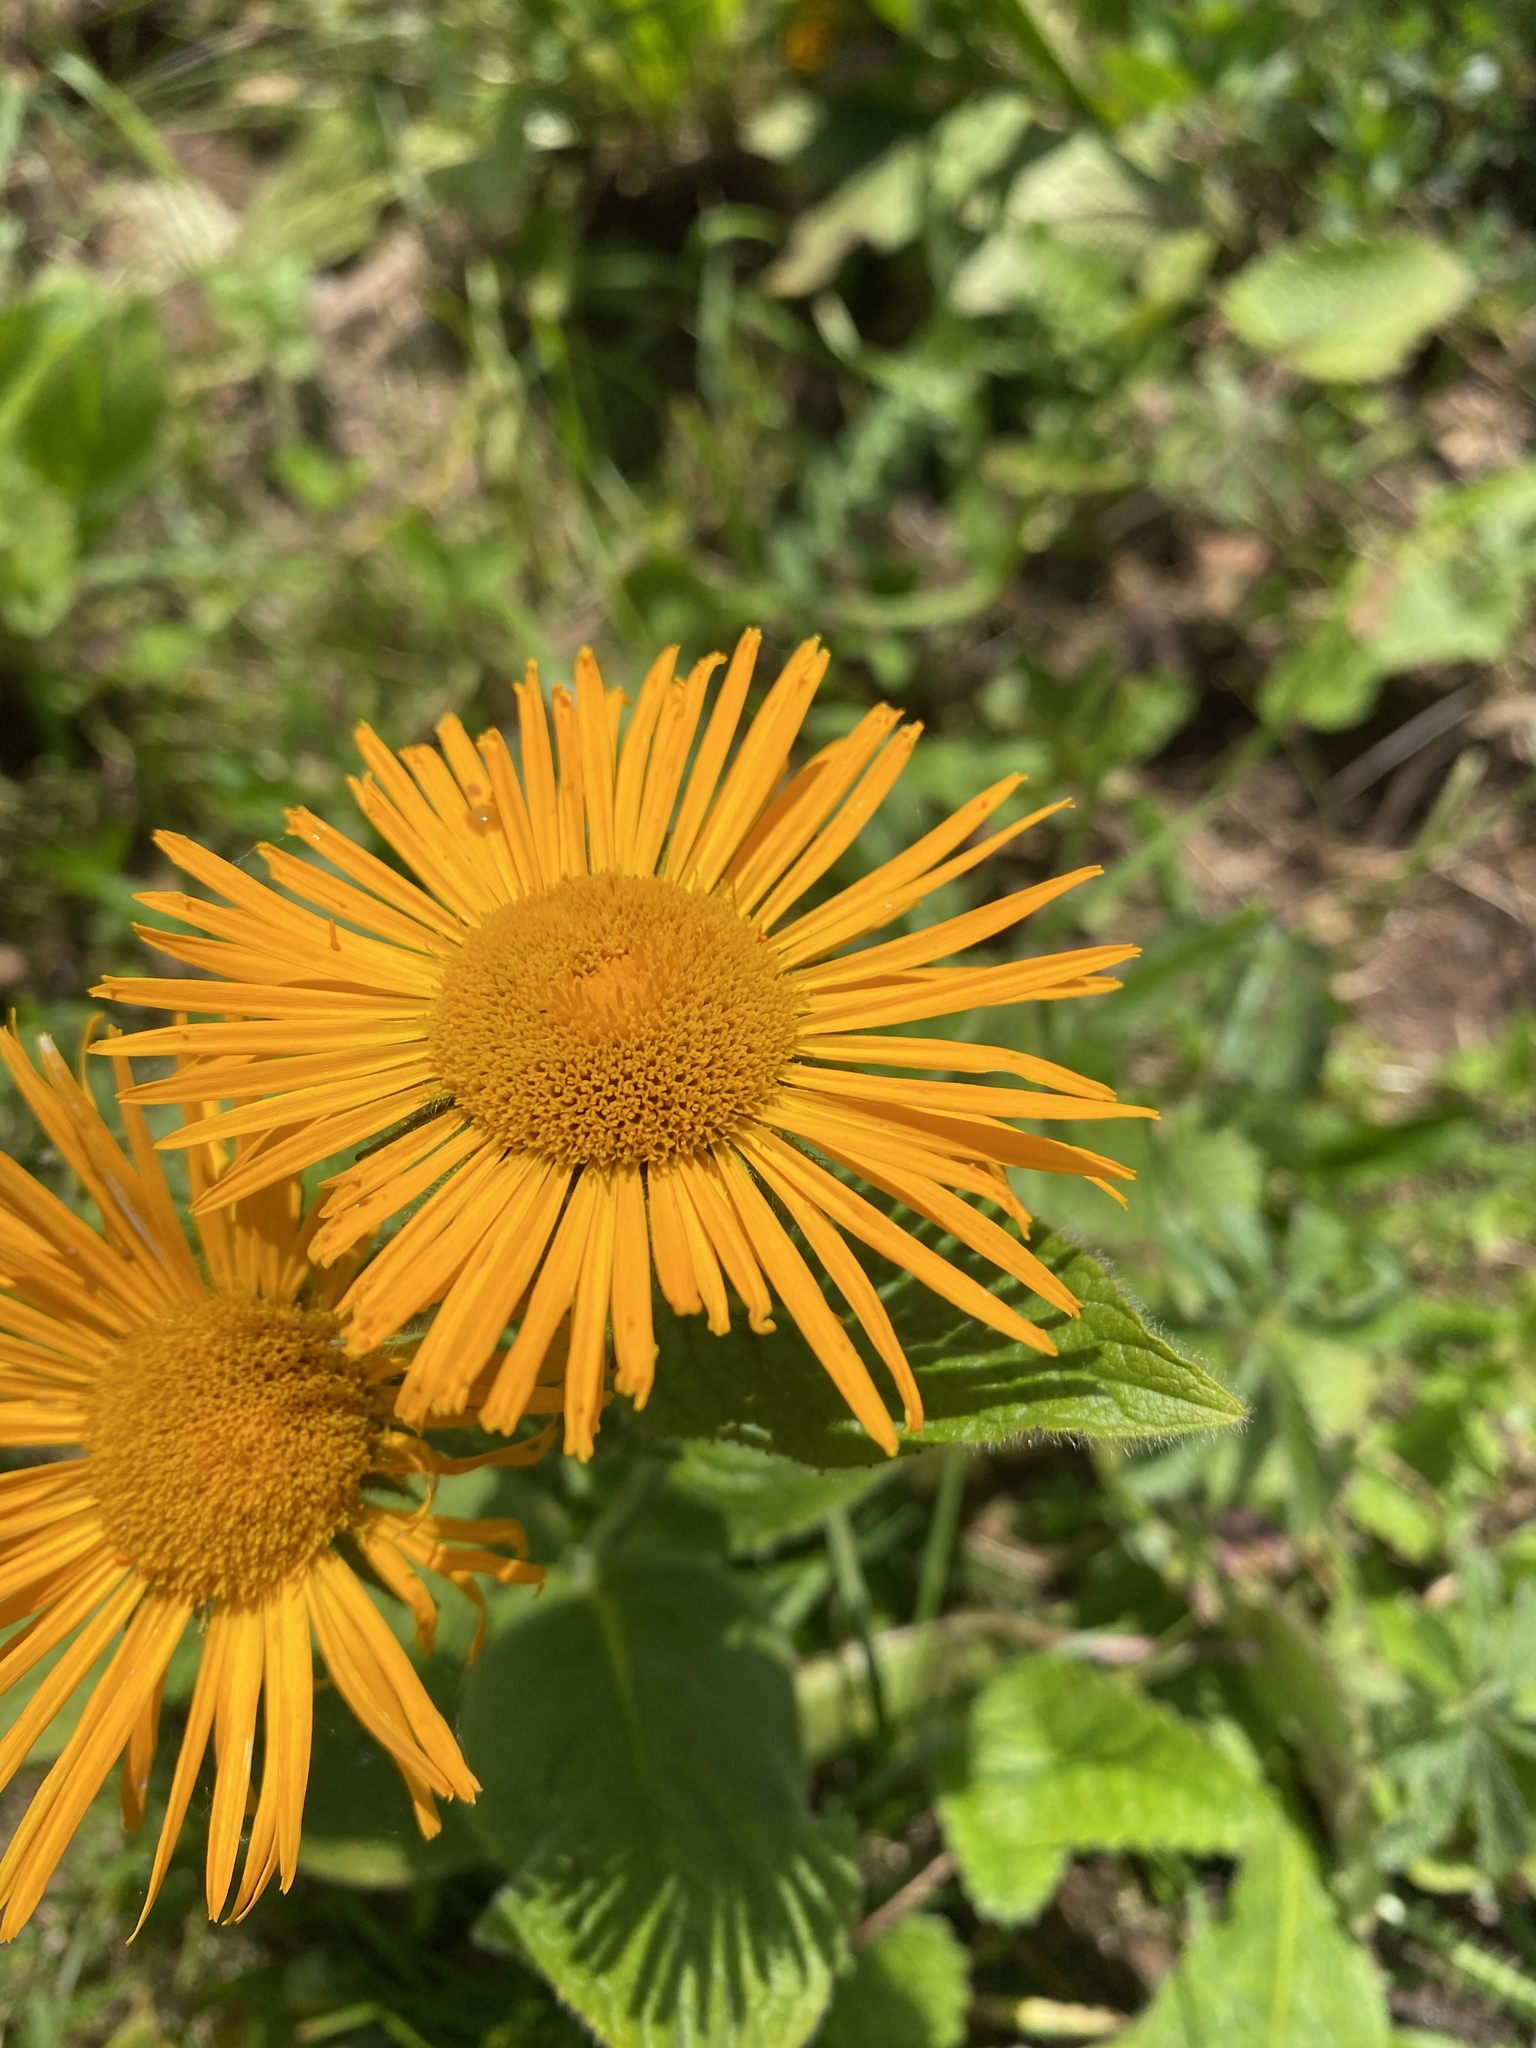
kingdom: Plantae
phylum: Tracheophyta
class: Magnoliopsida
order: Asterales
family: Asteraceae
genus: Pentanema
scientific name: Pentanema orientale
